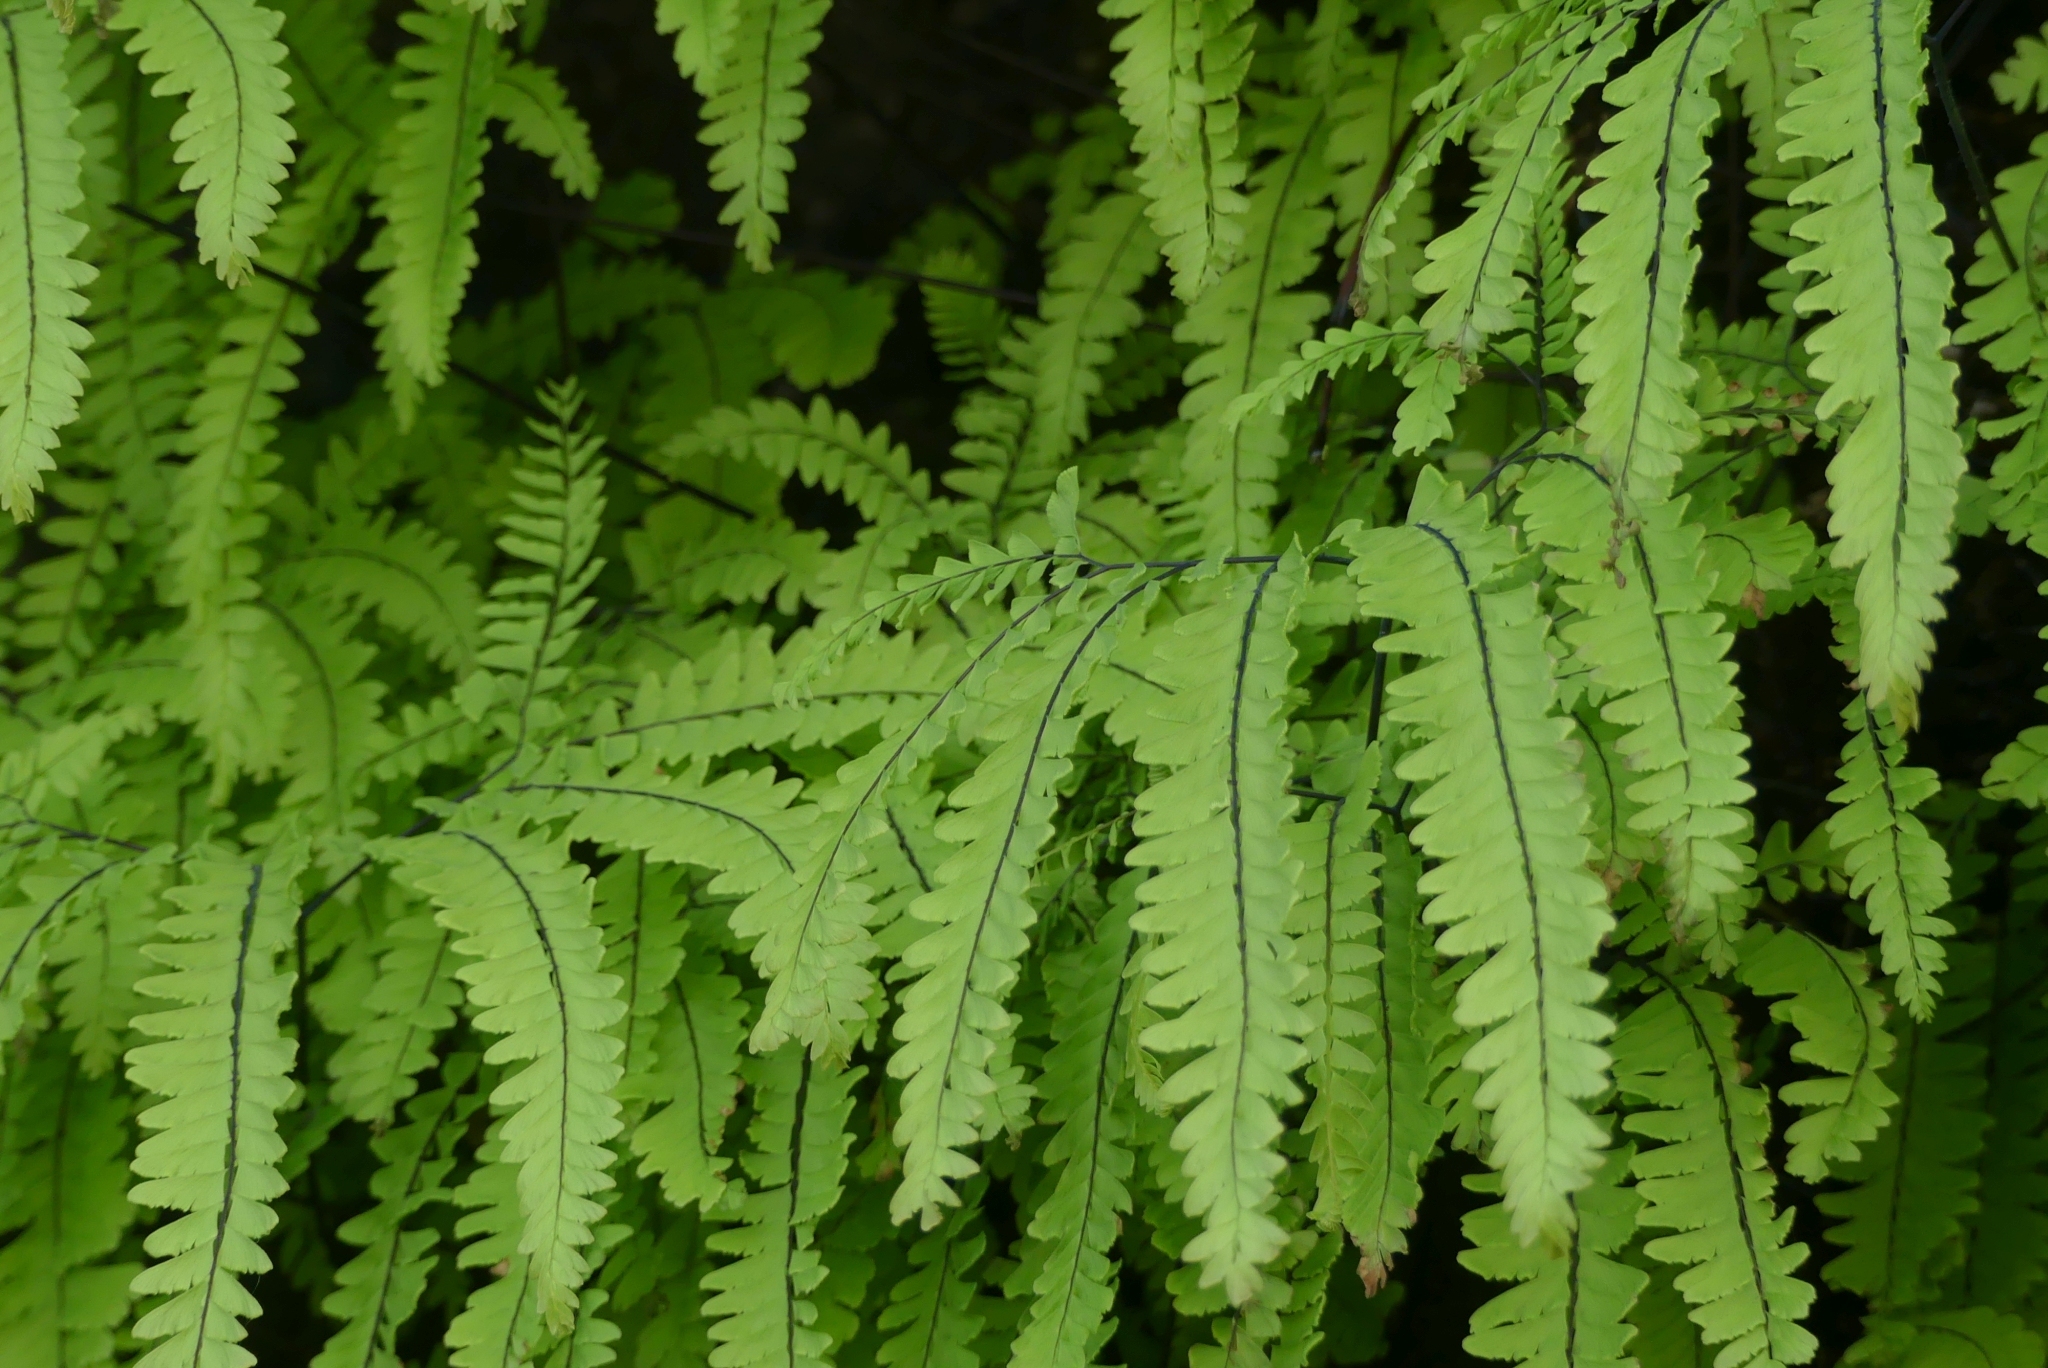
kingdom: Plantae
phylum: Tracheophyta
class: Polypodiopsida
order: Polypodiales
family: Pteridaceae
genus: Adiantum
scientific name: Adiantum aleuticum
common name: Aleutian maidenhair fern
